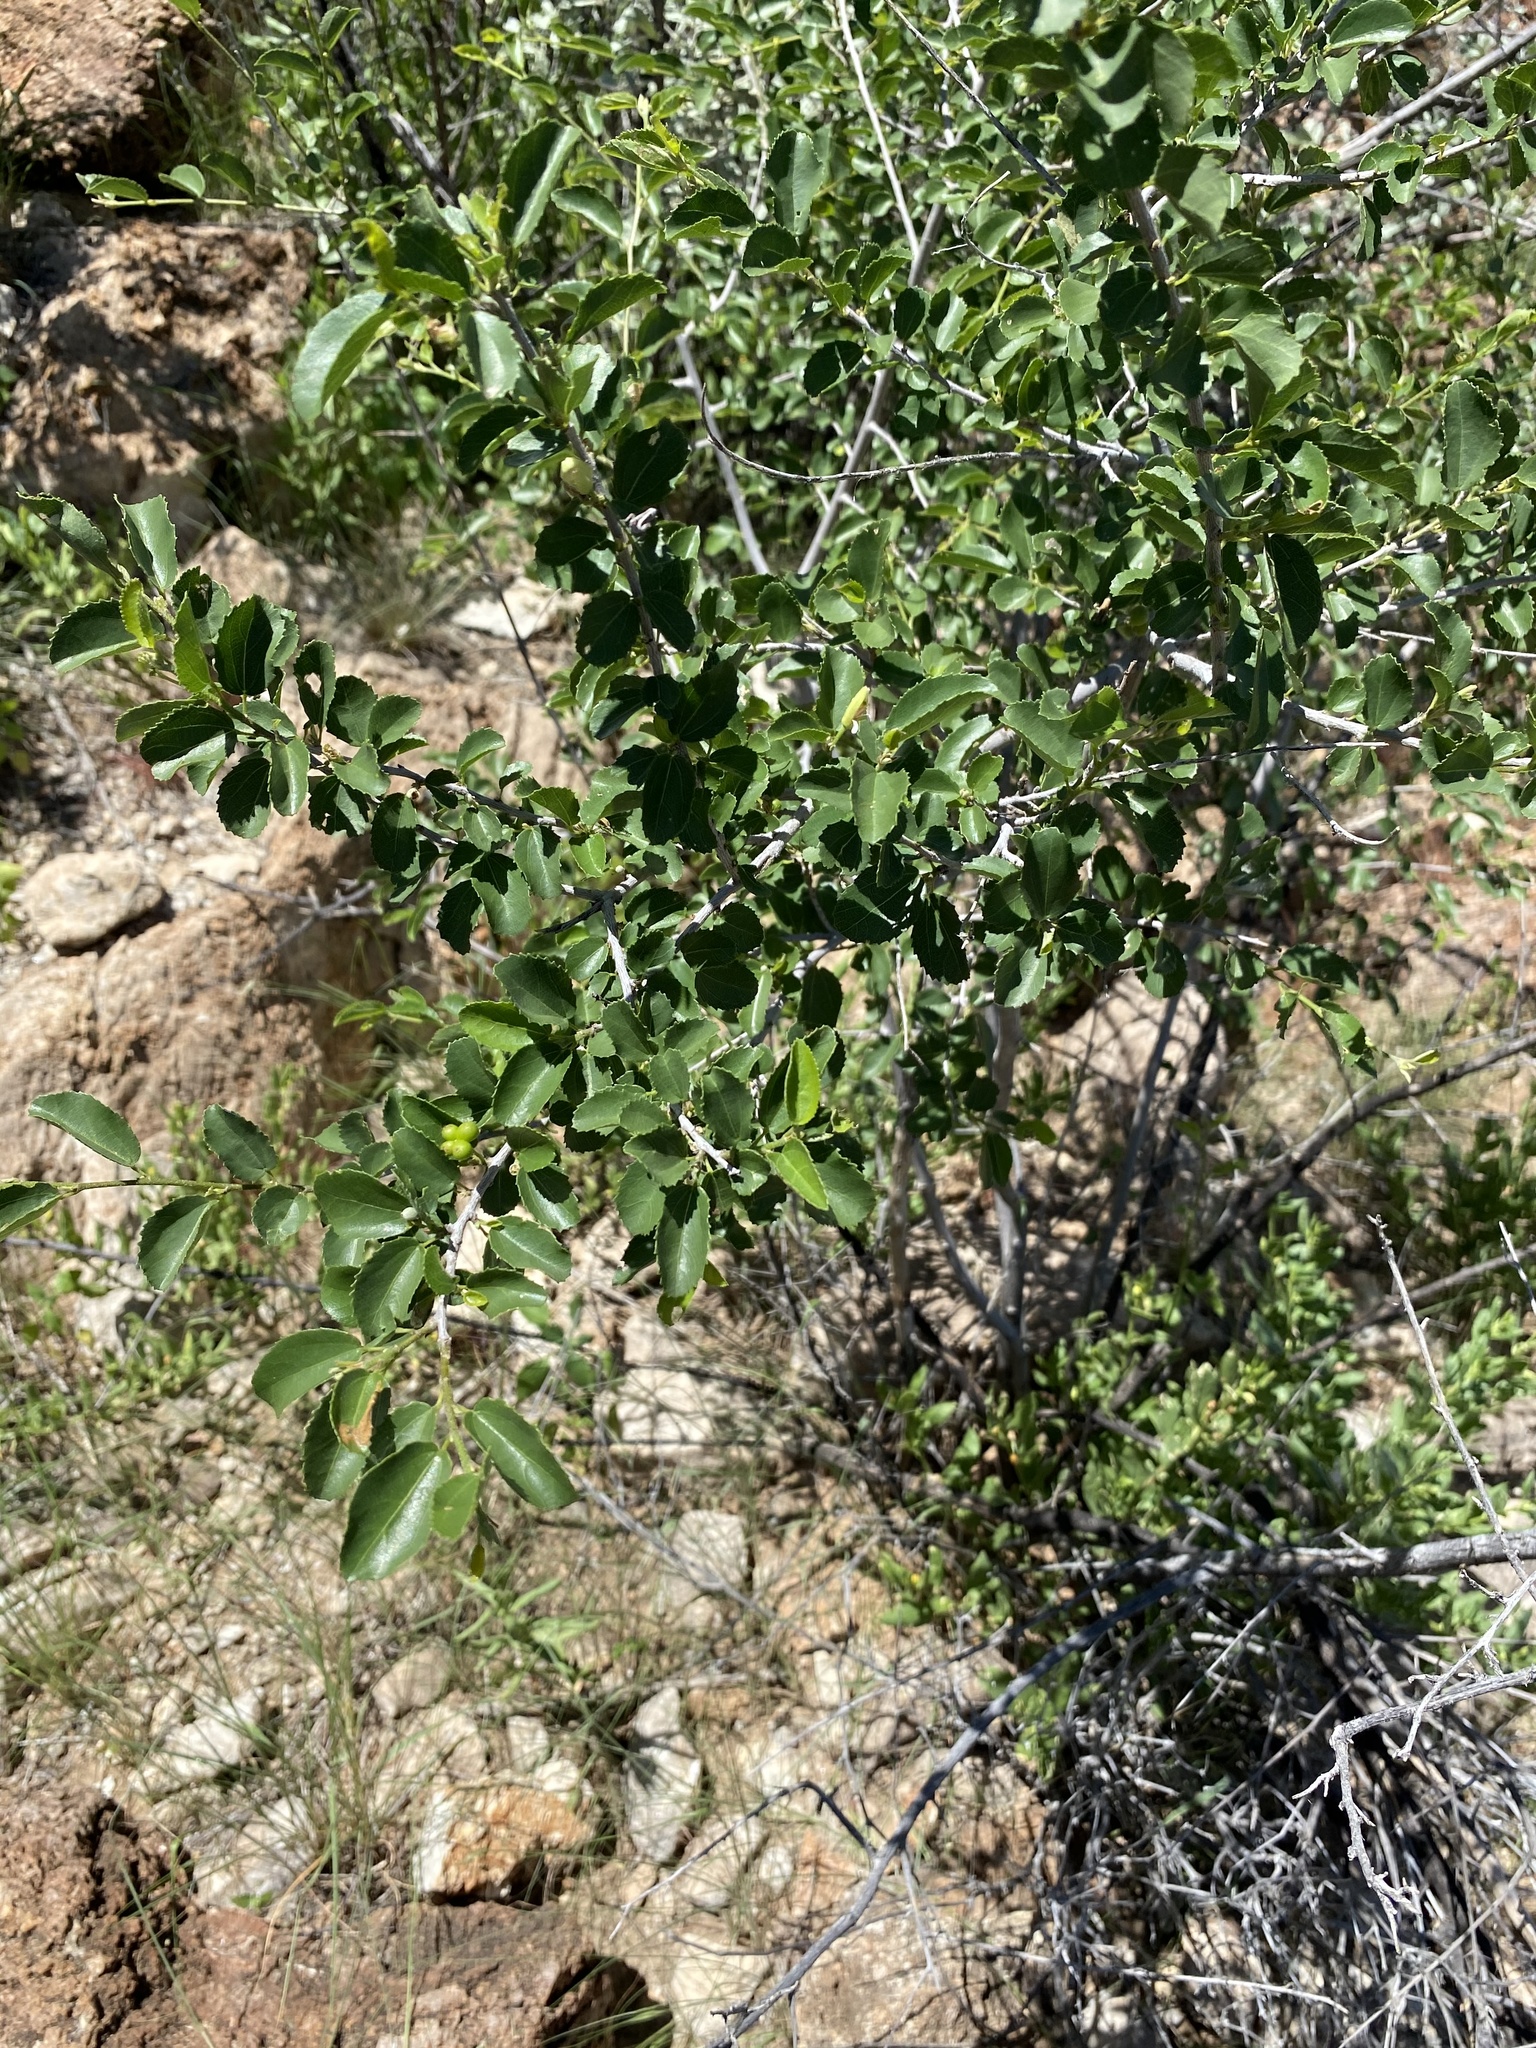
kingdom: Plantae
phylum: Tracheophyta
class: Magnoliopsida
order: Malvales
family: Malvaceae
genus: Grewia
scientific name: Grewia tenax
